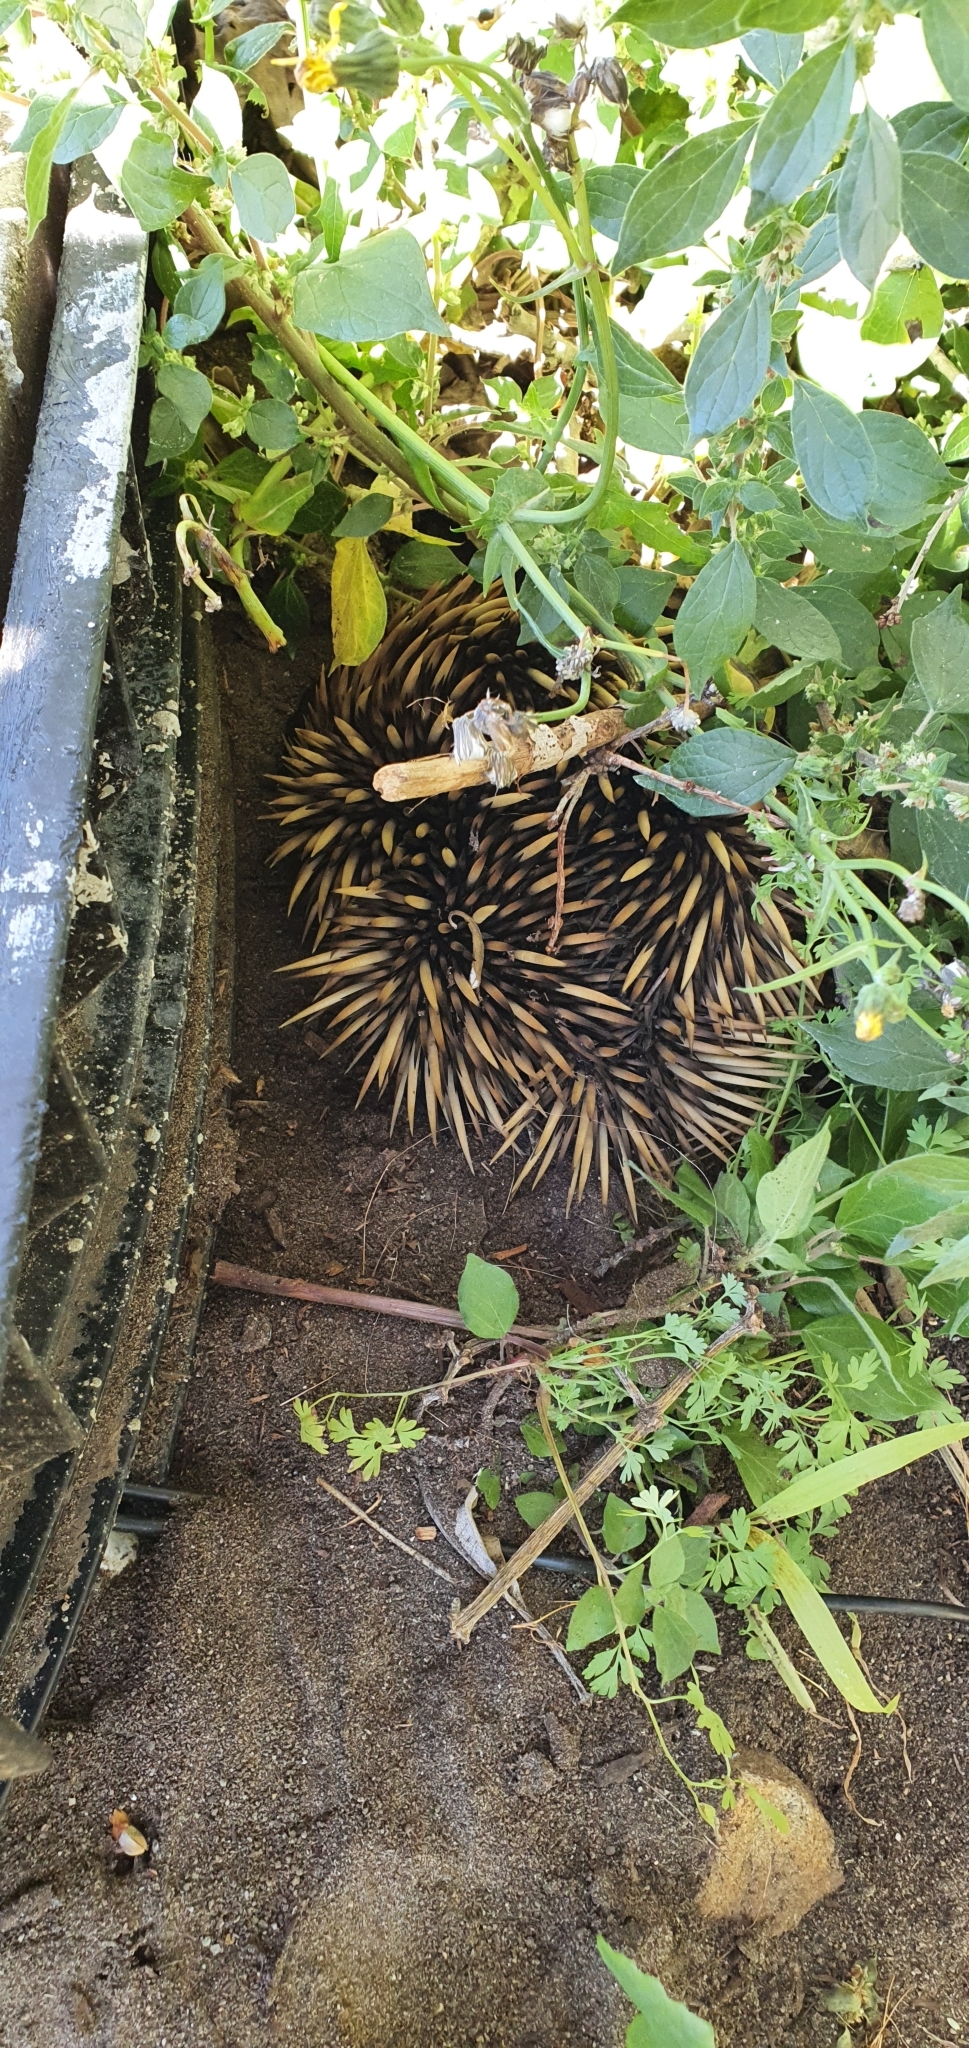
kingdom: Animalia
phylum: Chordata
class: Mammalia
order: Monotremata
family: Tachyglossidae
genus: Tachyglossus
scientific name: Tachyglossus aculeatus
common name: Short-beaked echidna
